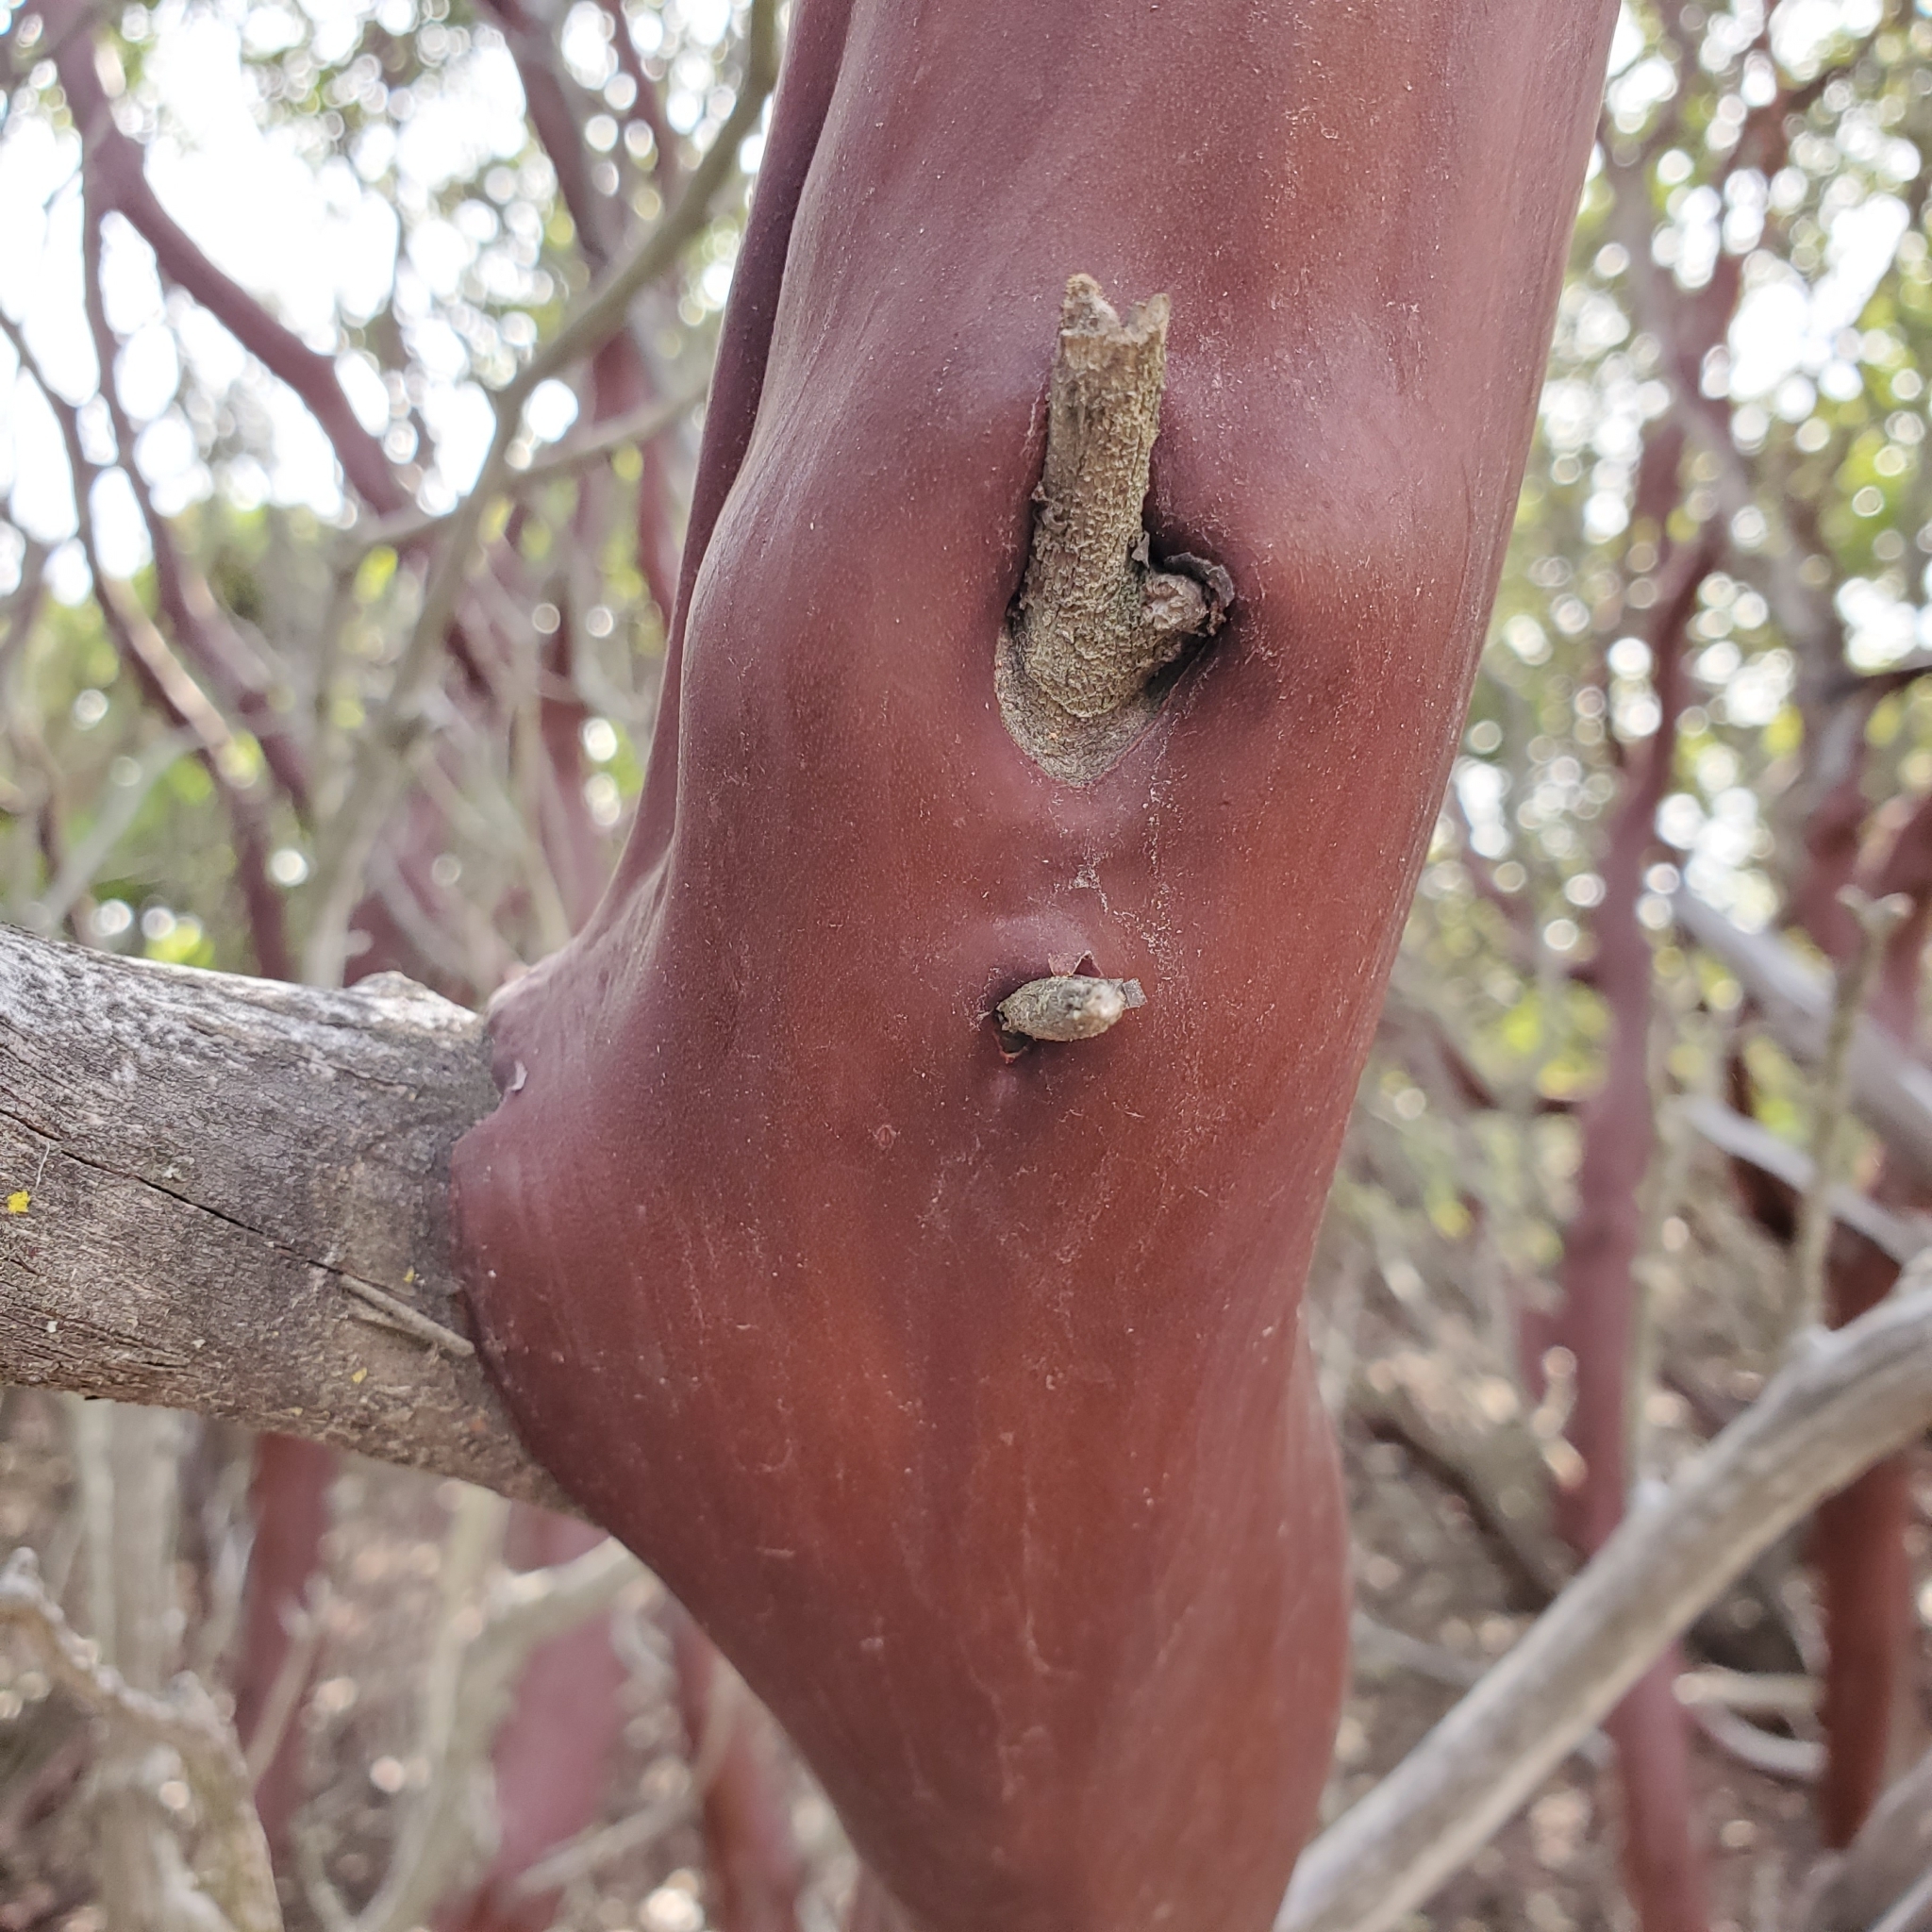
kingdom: Plantae
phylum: Tracheophyta
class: Magnoliopsida
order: Ericales
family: Ericaceae
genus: Arctostaphylos
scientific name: Arctostaphylos glandulosa
